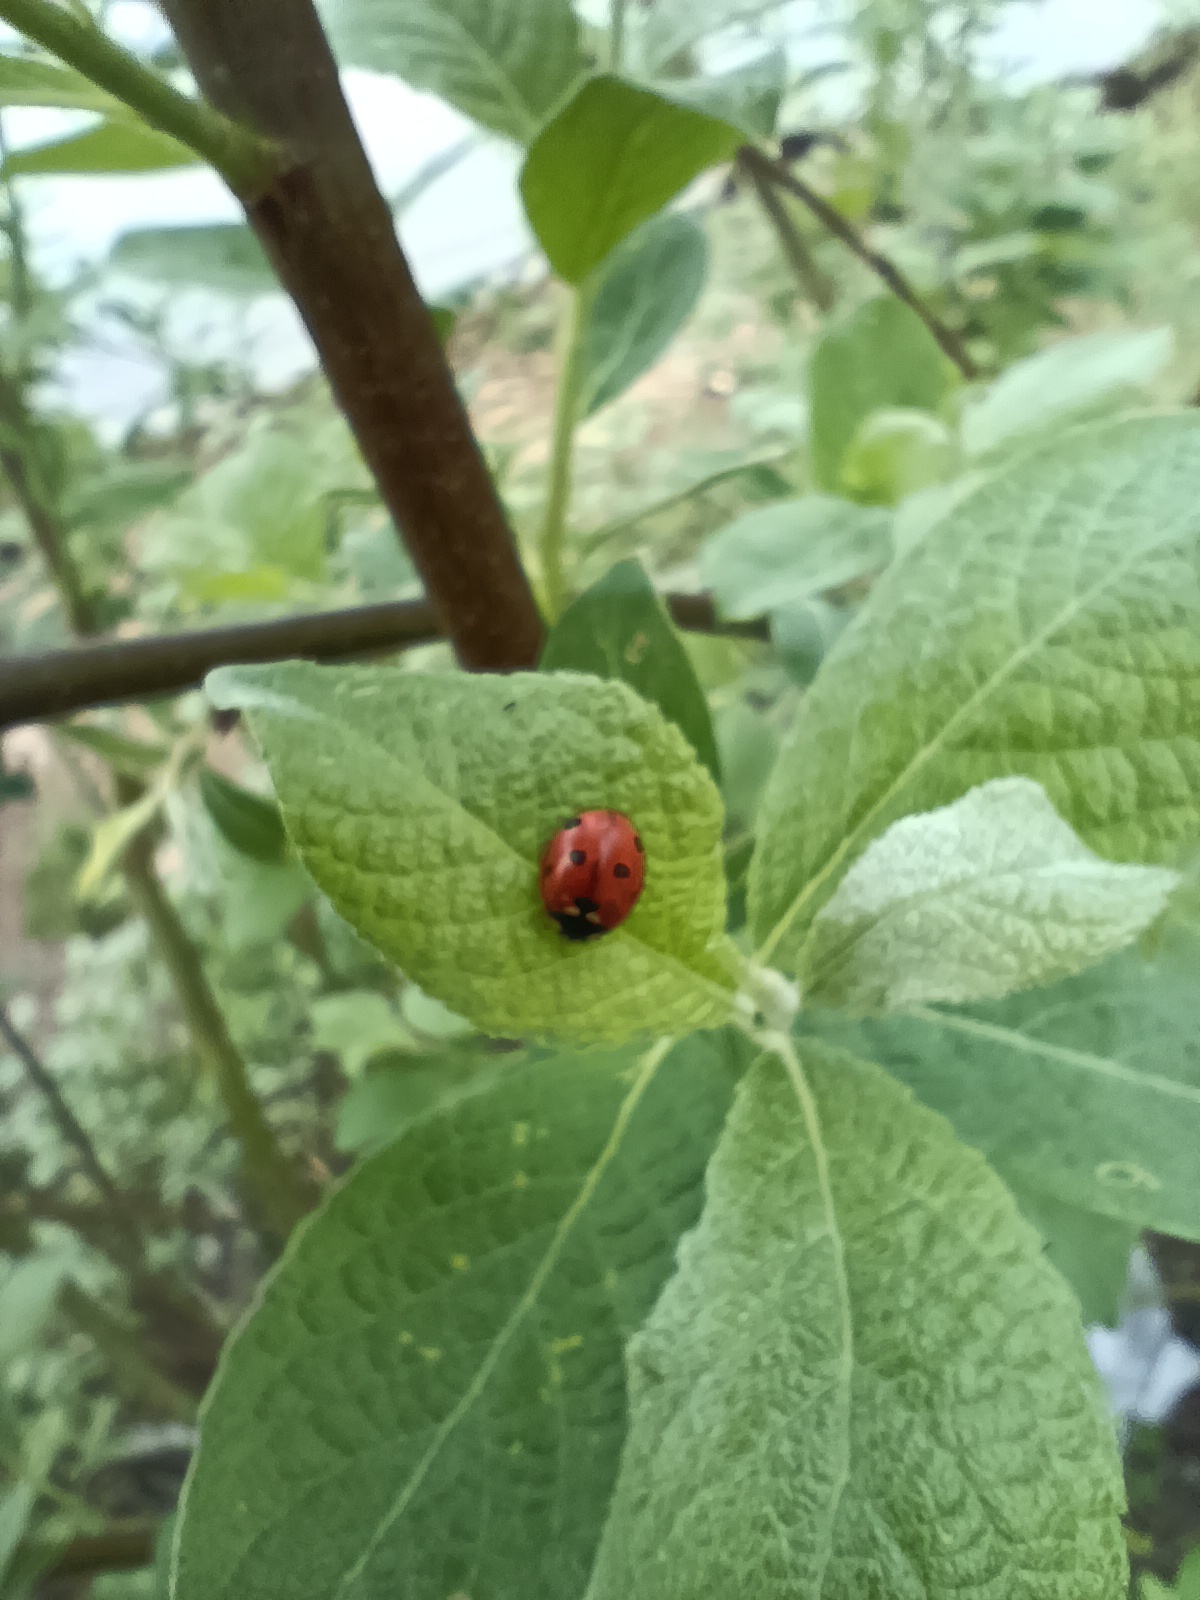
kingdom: Animalia
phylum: Arthropoda
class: Insecta
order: Coleoptera
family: Coccinellidae
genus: Coccinella
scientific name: Coccinella septempunctata
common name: Sevenspotted lady beetle
